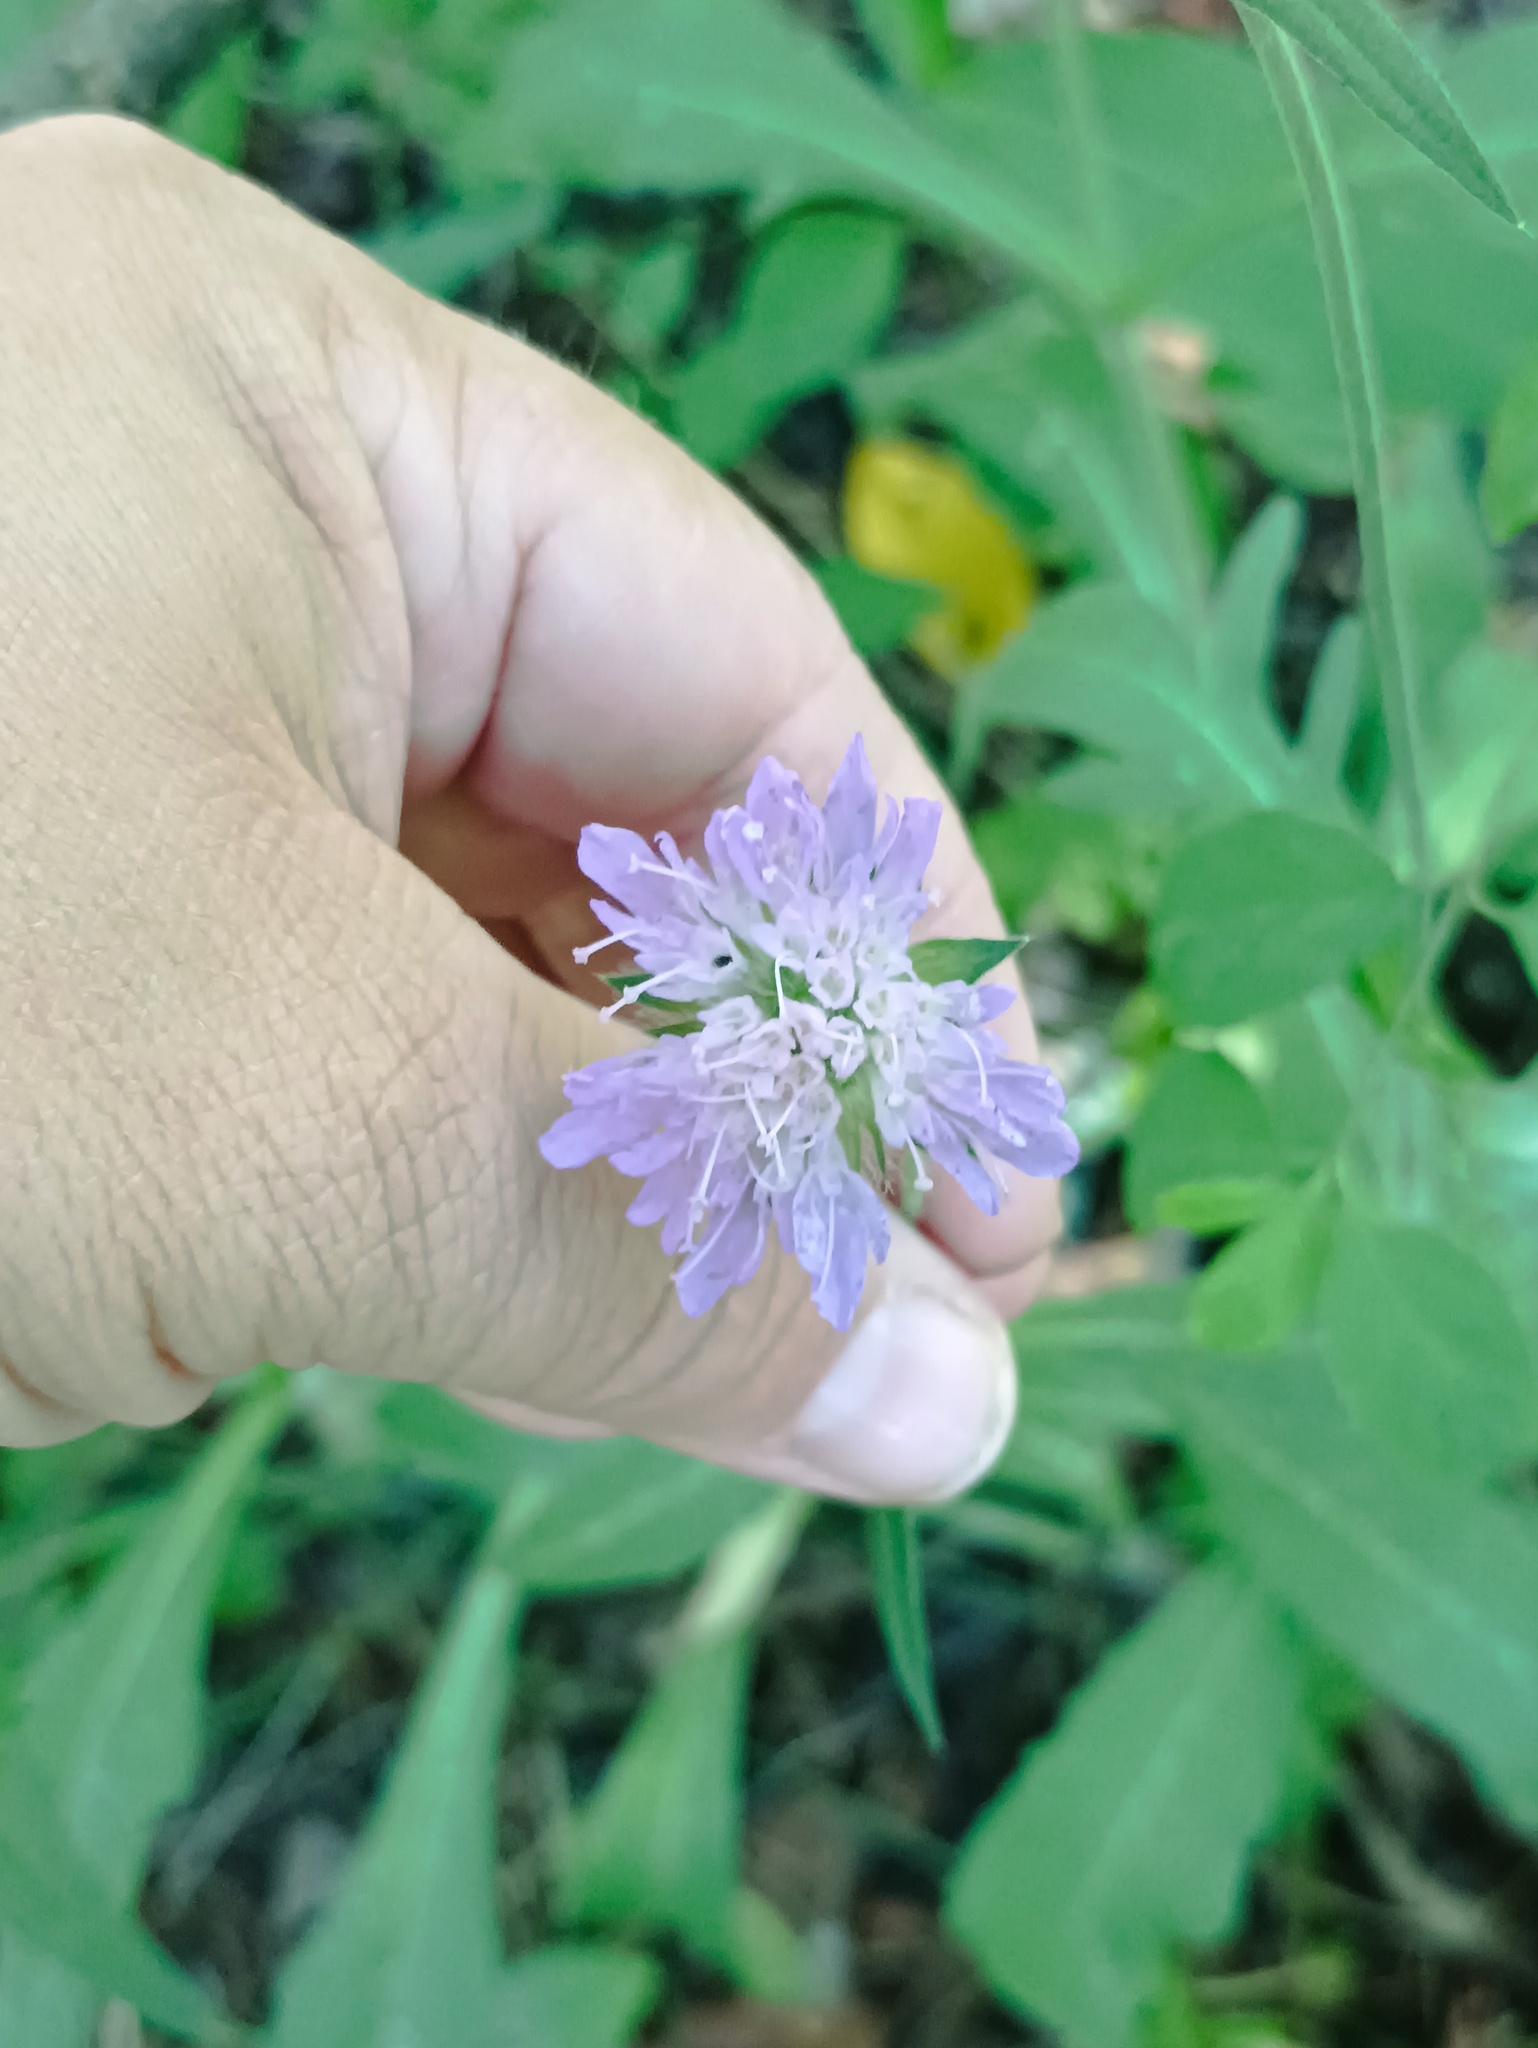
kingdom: Plantae
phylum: Tracheophyta
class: Magnoliopsida
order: Dipsacales
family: Caprifoliaceae
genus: Knautia
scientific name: Knautia arvensis
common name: Field scabiosa
